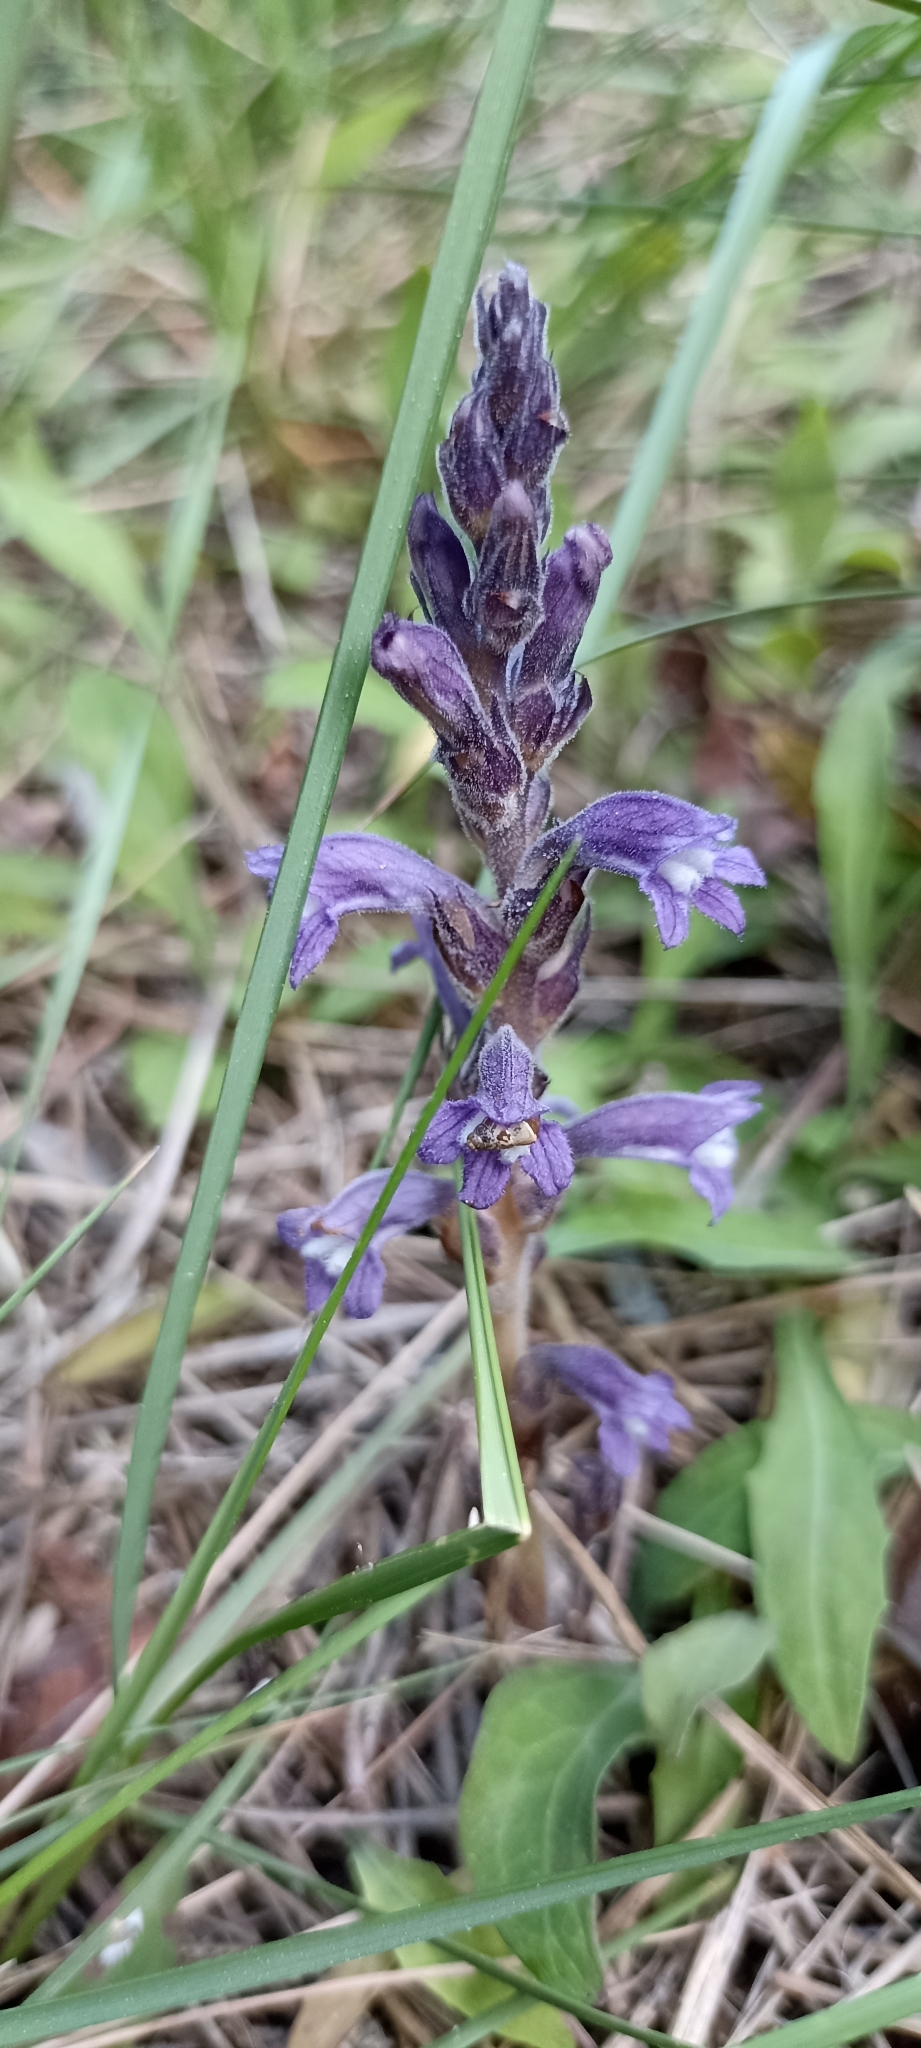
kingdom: Plantae
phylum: Tracheophyta
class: Magnoliopsida
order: Lamiales
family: Orobanchaceae
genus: Phelipanche
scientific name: Phelipanche mutelii
